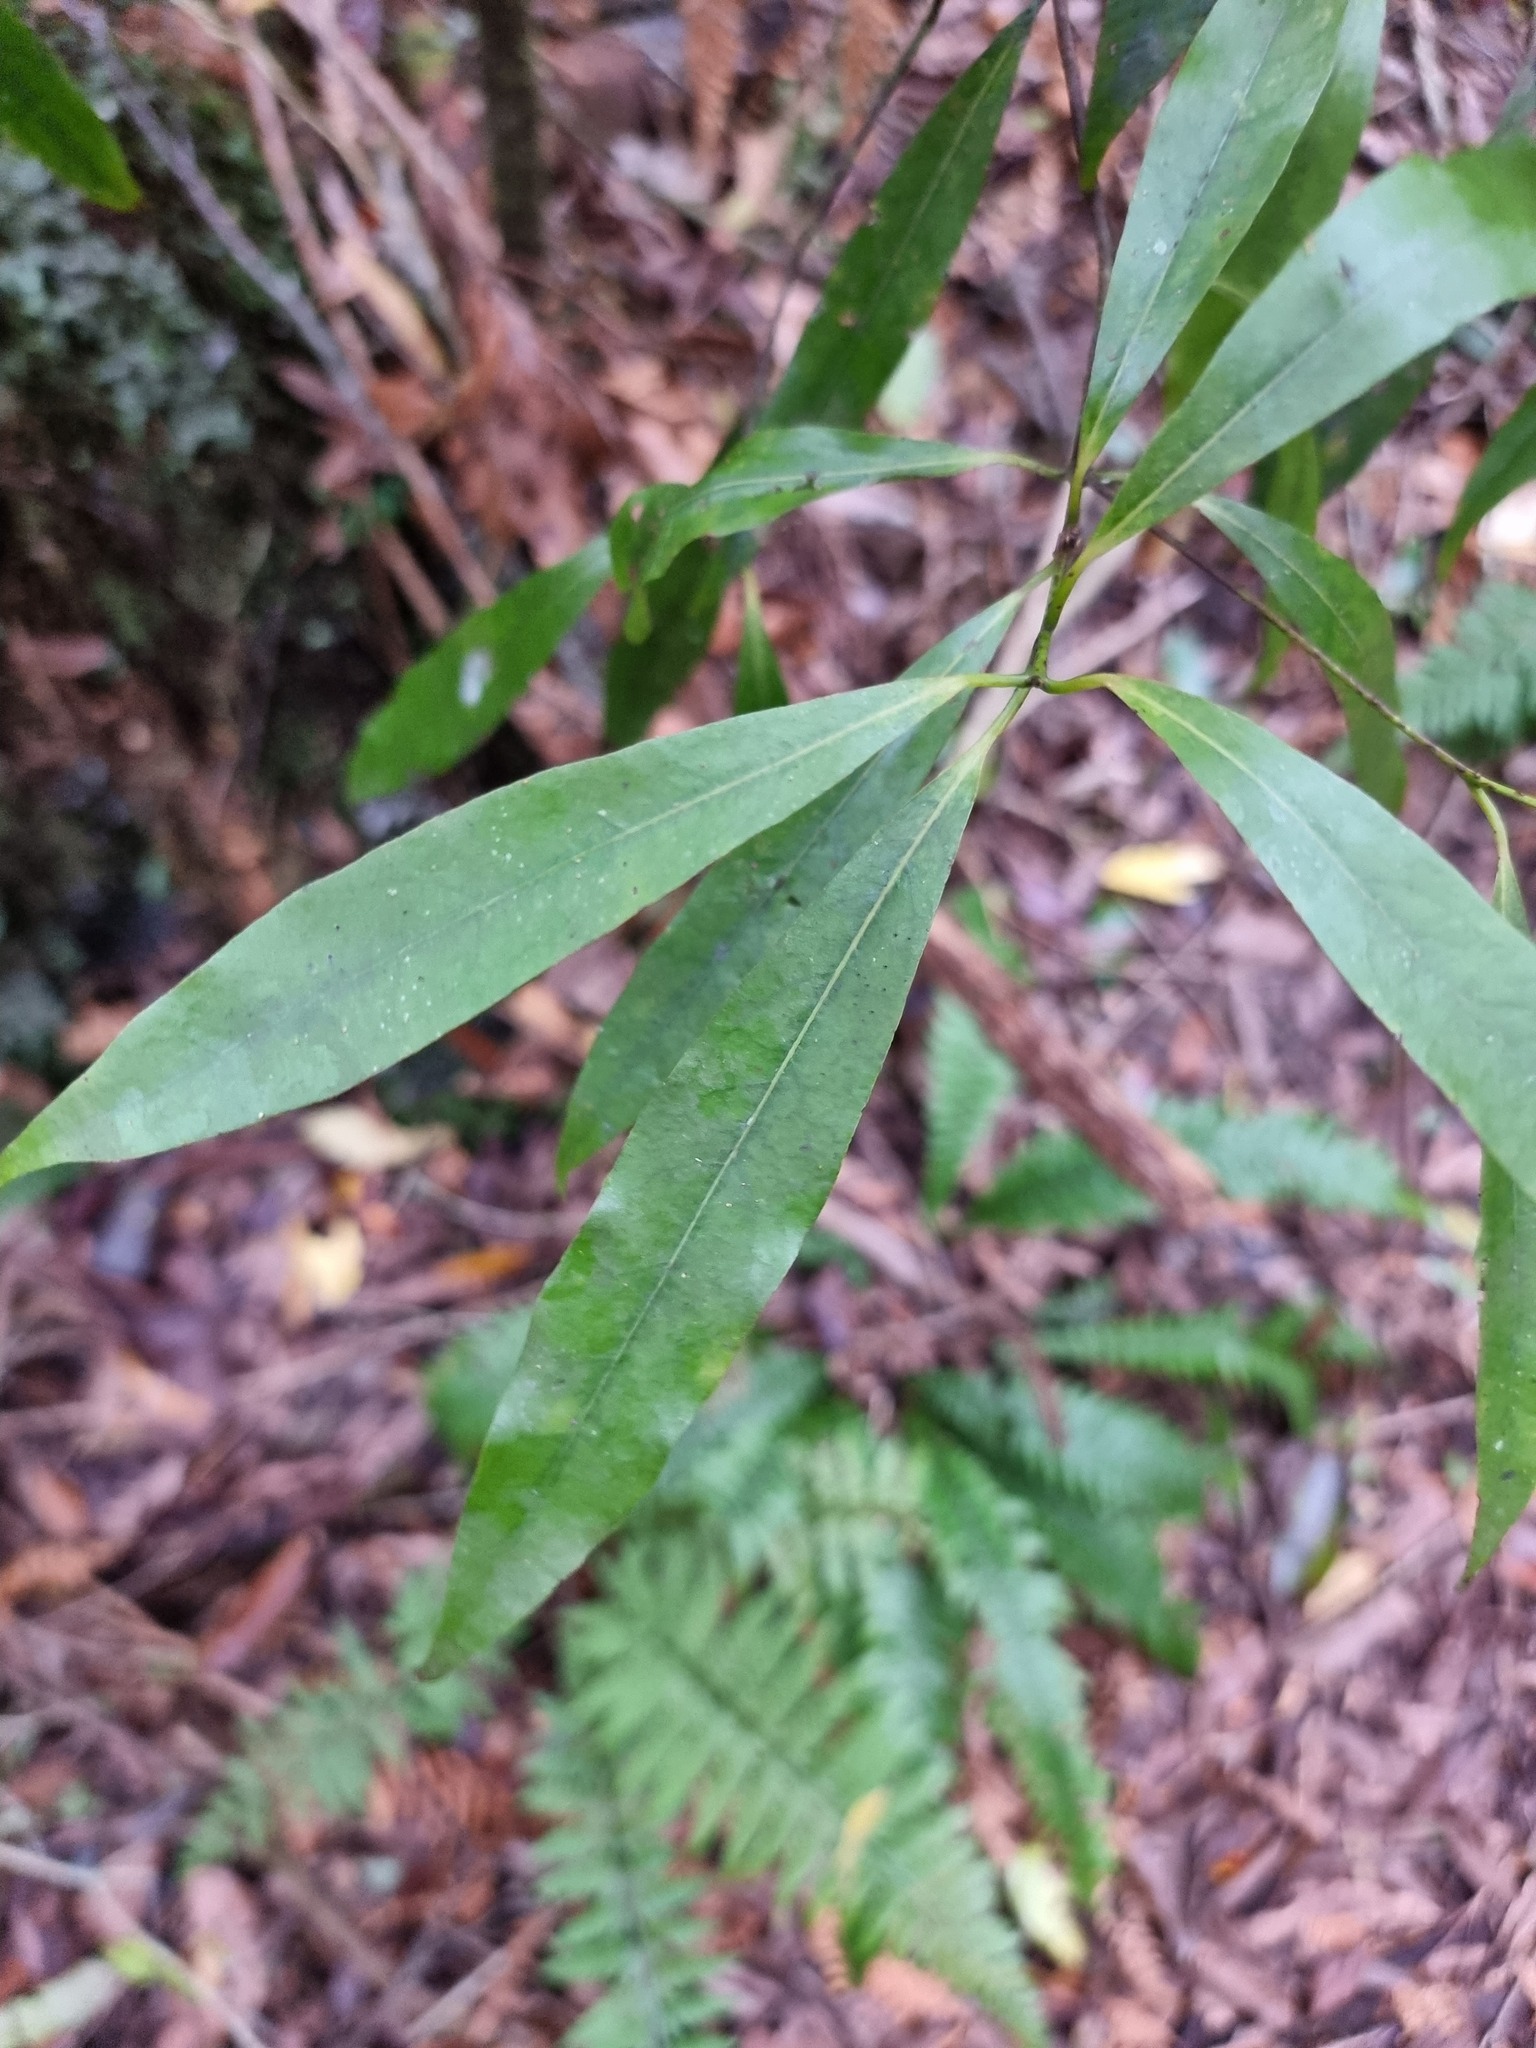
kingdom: Plantae
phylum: Tracheophyta
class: Magnoliopsida
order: Laurales
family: Lauraceae
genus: Beilschmiedia
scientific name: Beilschmiedia tawa
